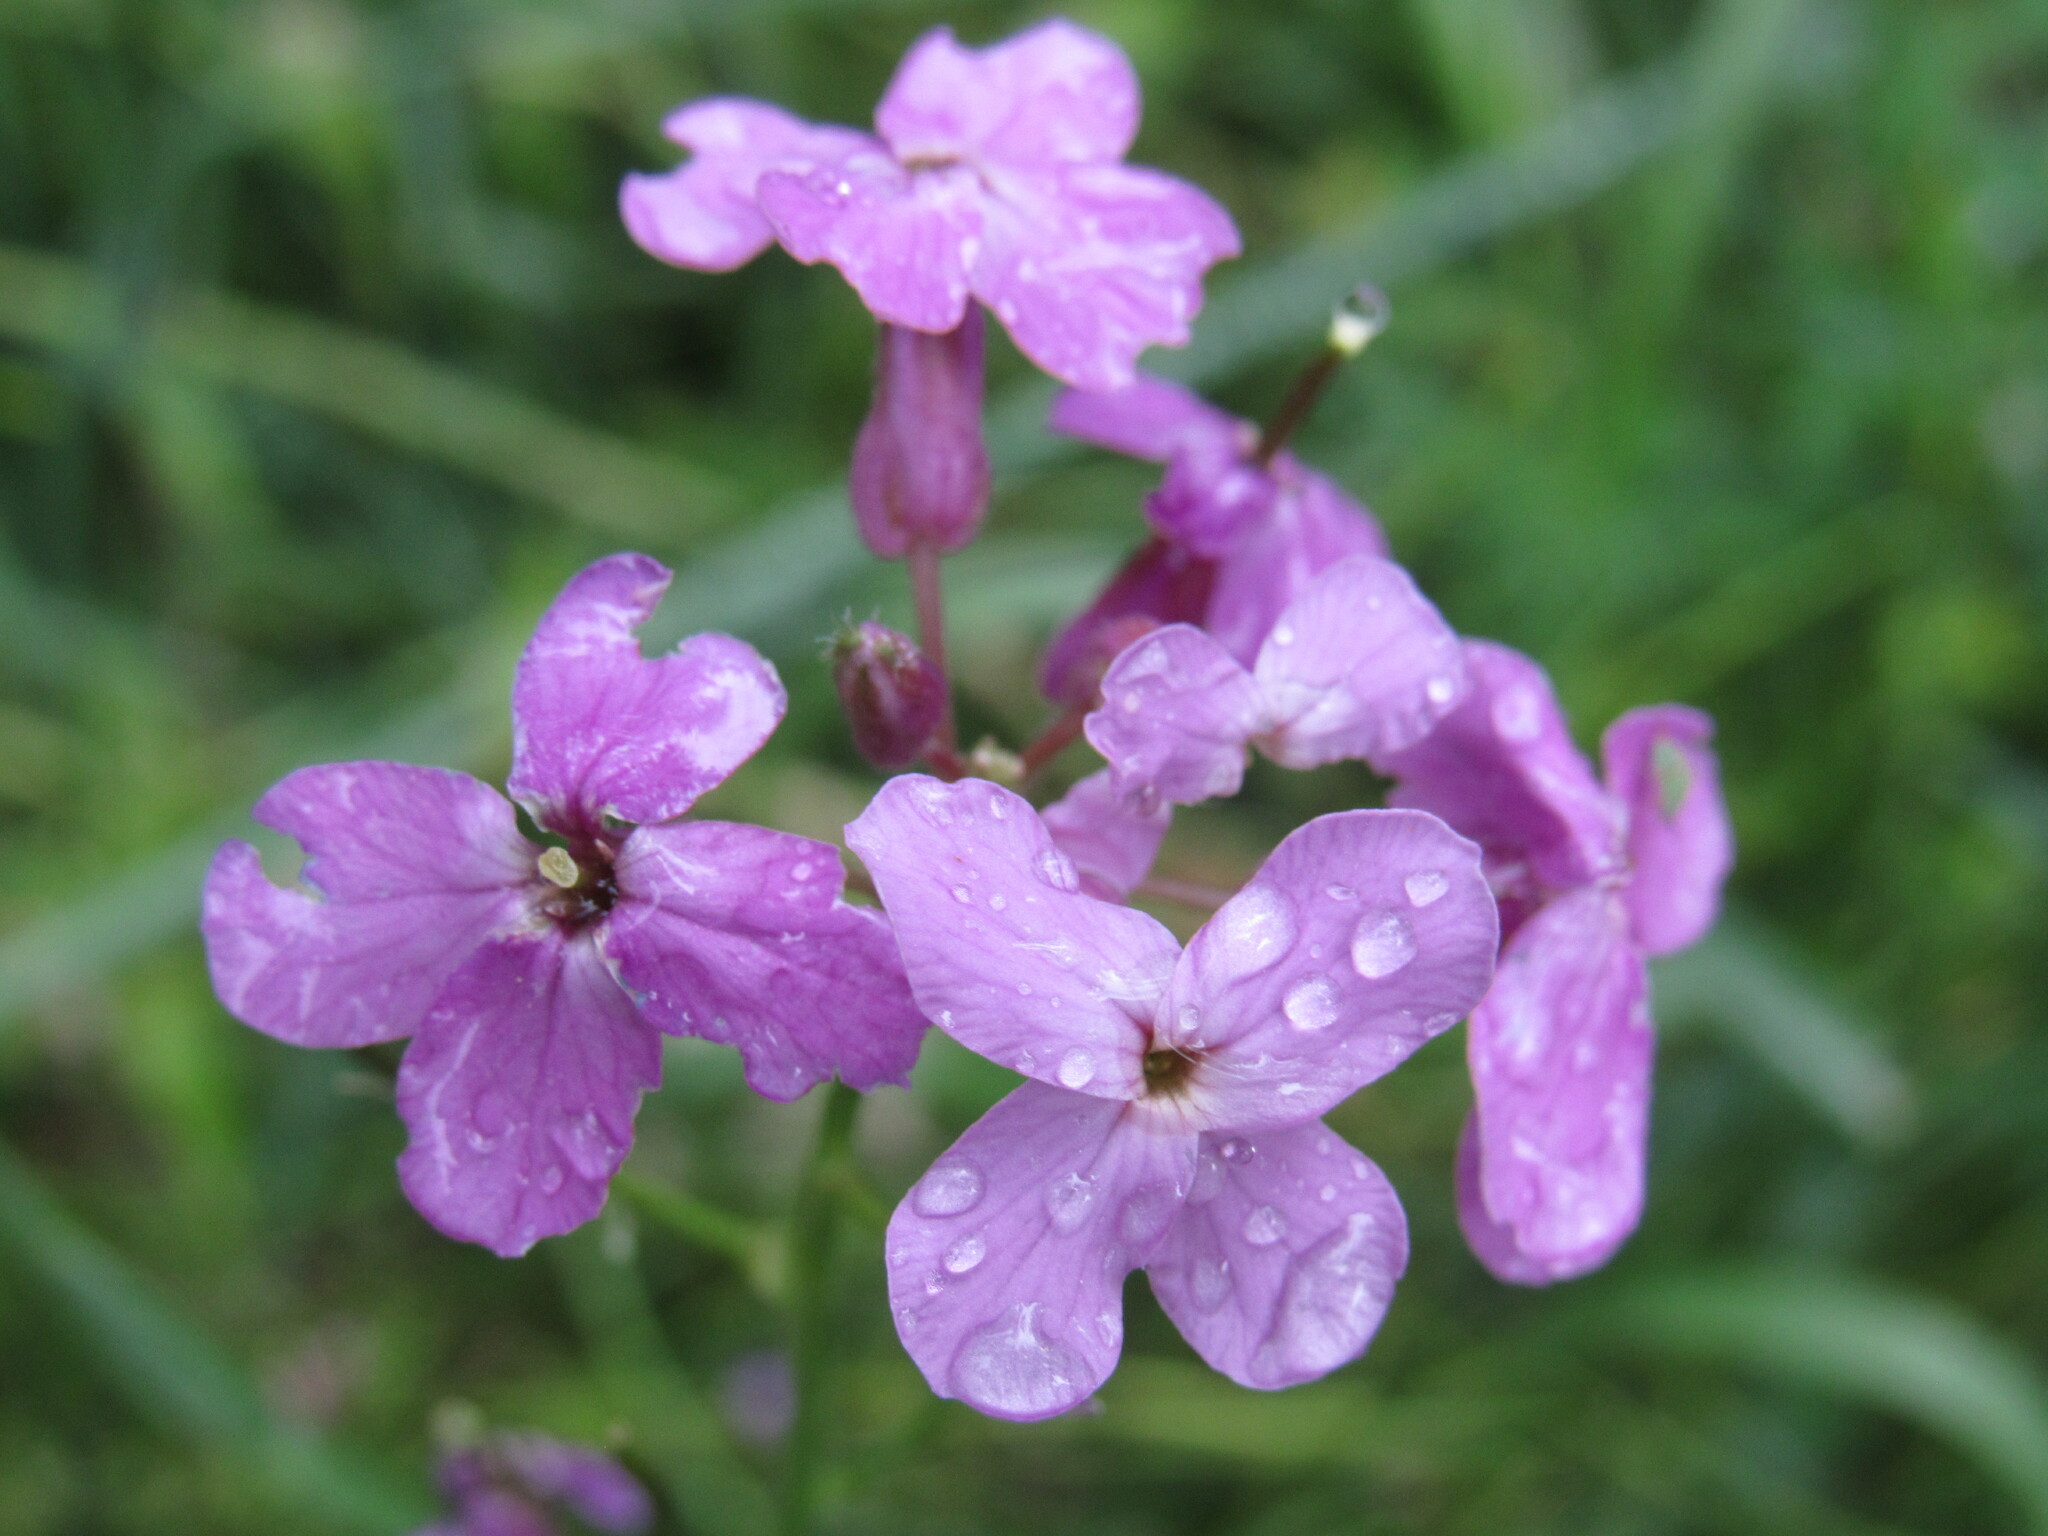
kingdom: Plantae
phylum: Tracheophyta
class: Magnoliopsida
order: Brassicales
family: Brassicaceae
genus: Hesperis
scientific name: Hesperis matronalis
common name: Dame's-violet
